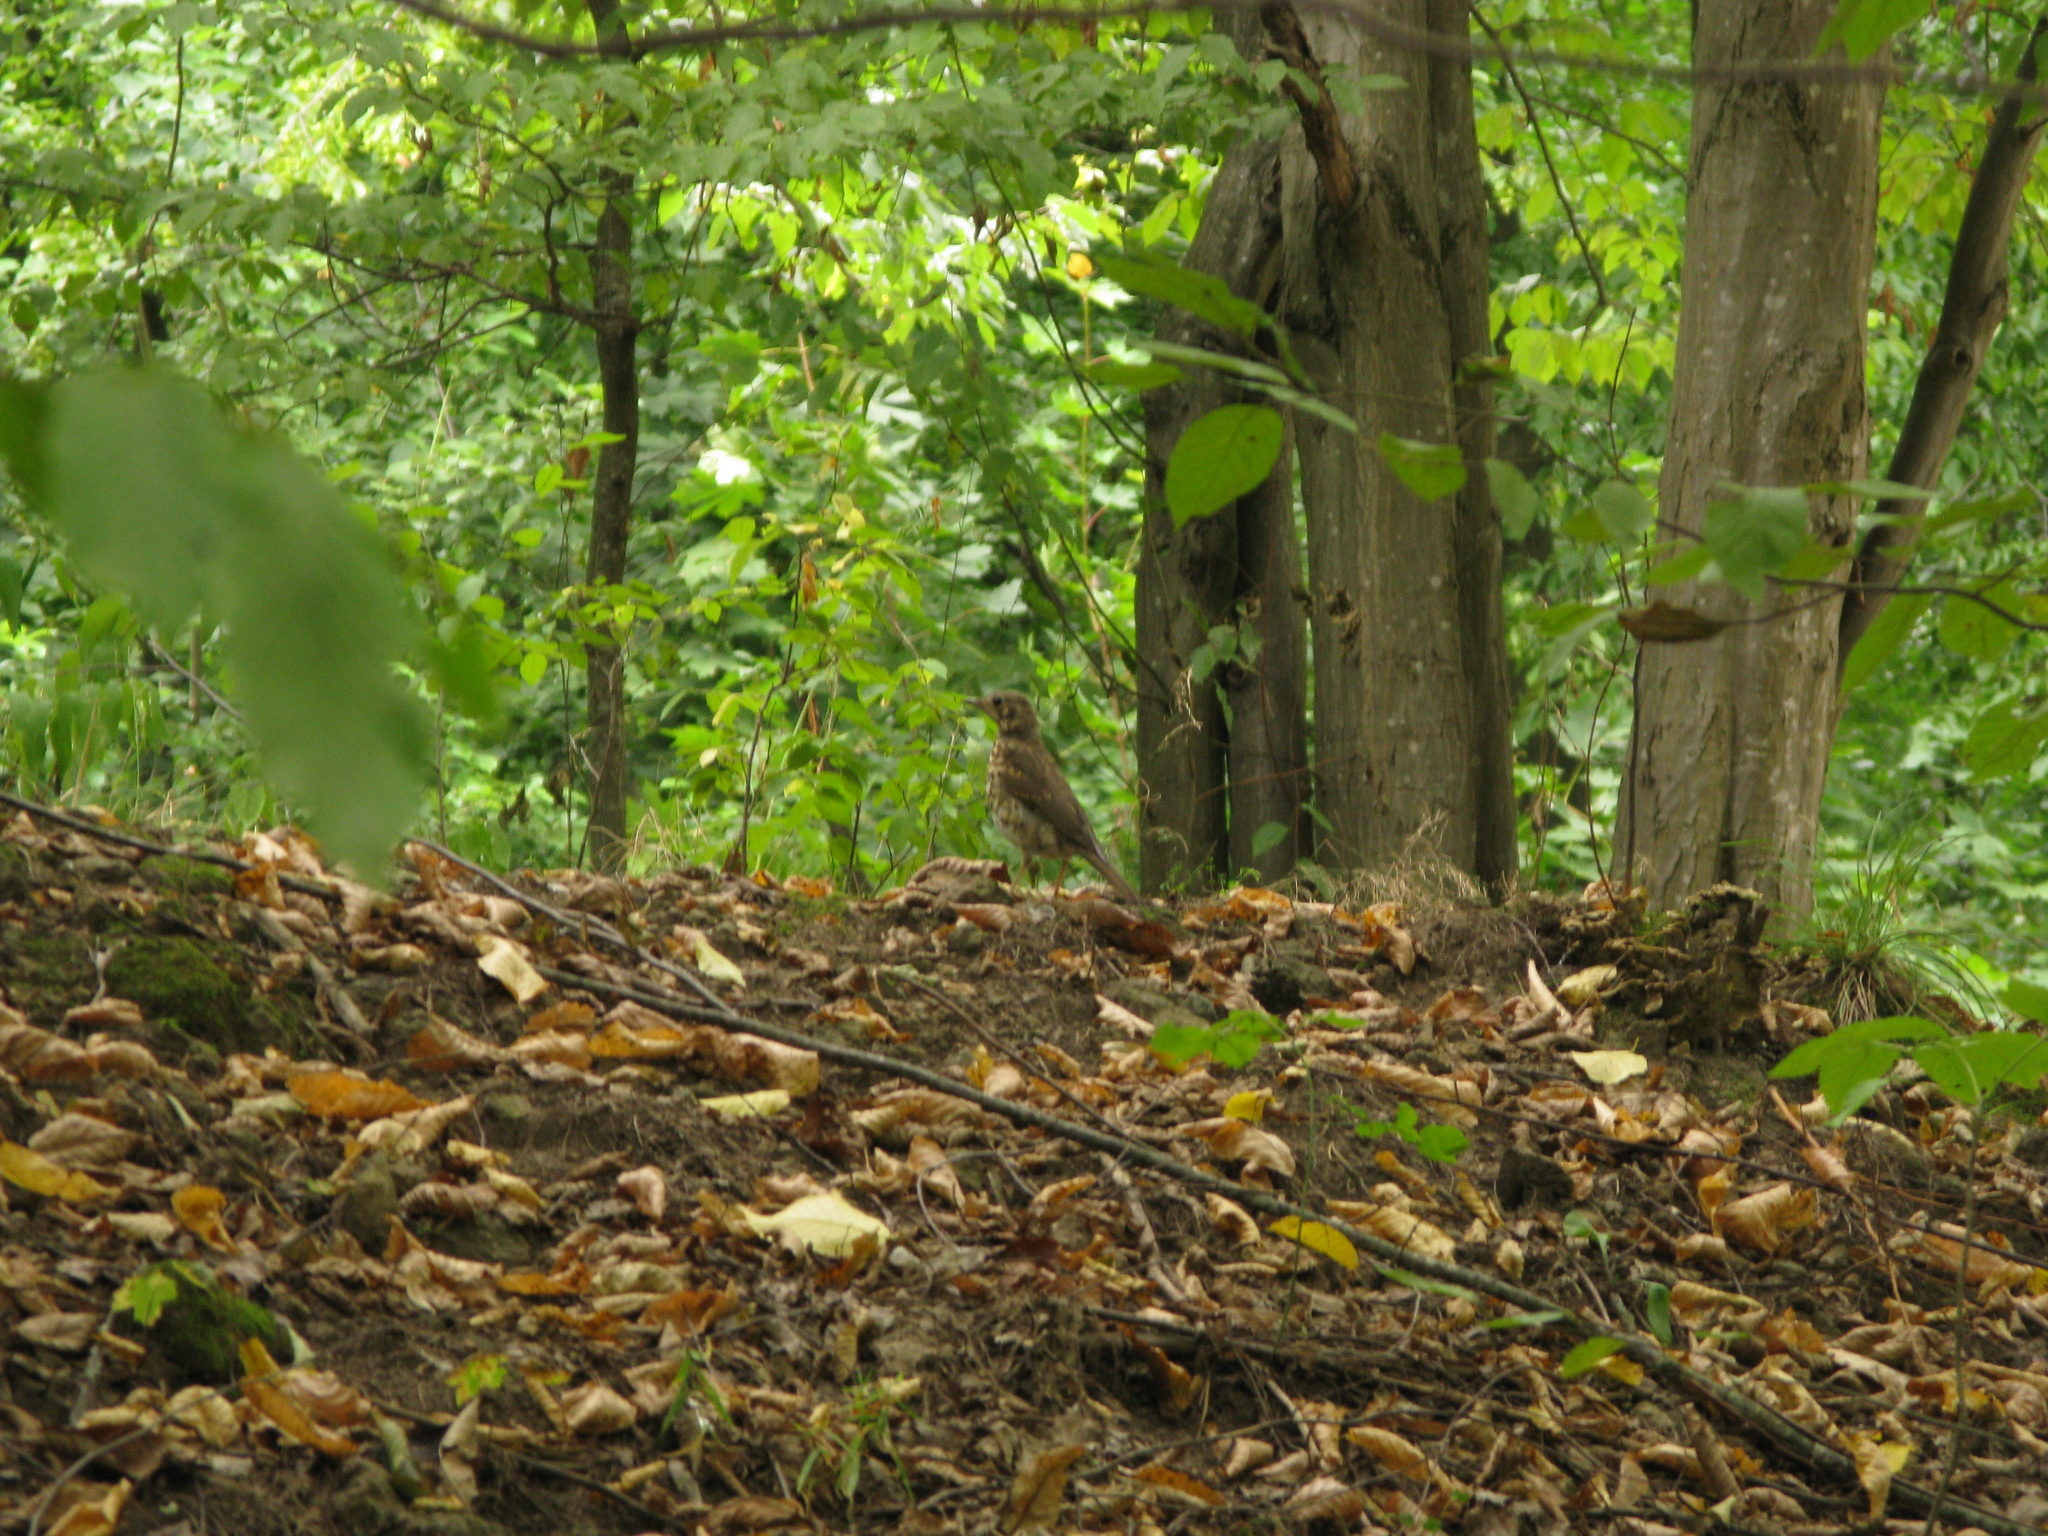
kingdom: Animalia
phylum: Chordata
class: Aves
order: Passeriformes
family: Turdidae
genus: Turdus
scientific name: Turdus philomelos
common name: Song thrush
